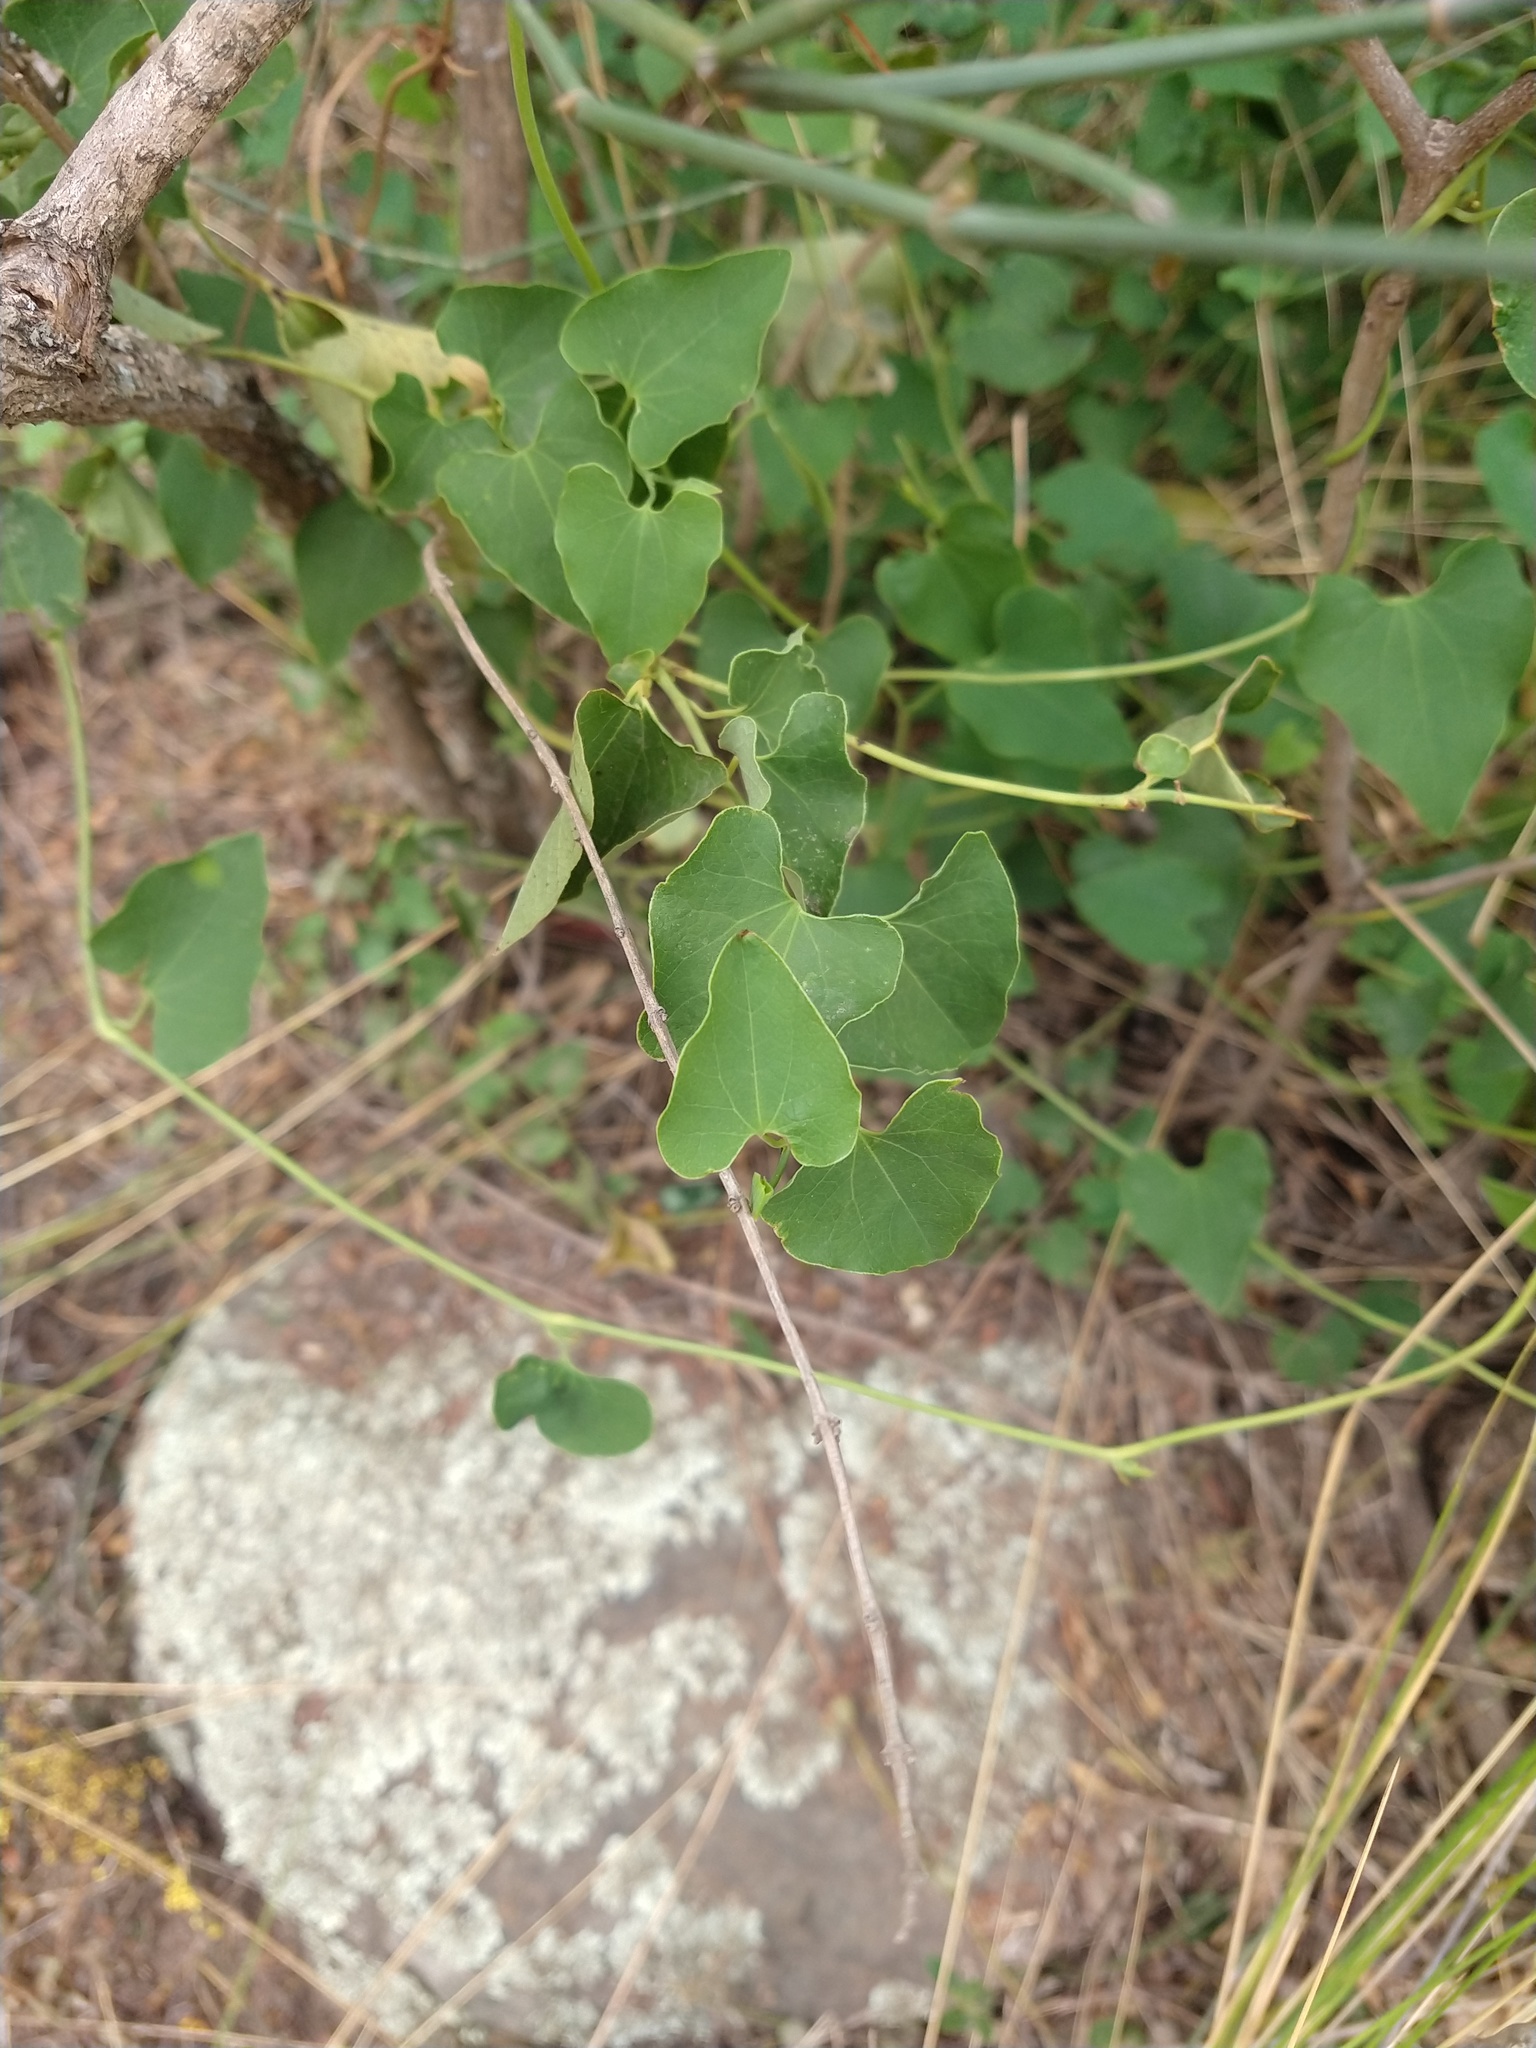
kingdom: Plantae
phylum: Tracheophyta
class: Magnoliopsida
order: Piperales
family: Aristolochiaceae
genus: Aristolochia
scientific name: Aristolochia argentina
